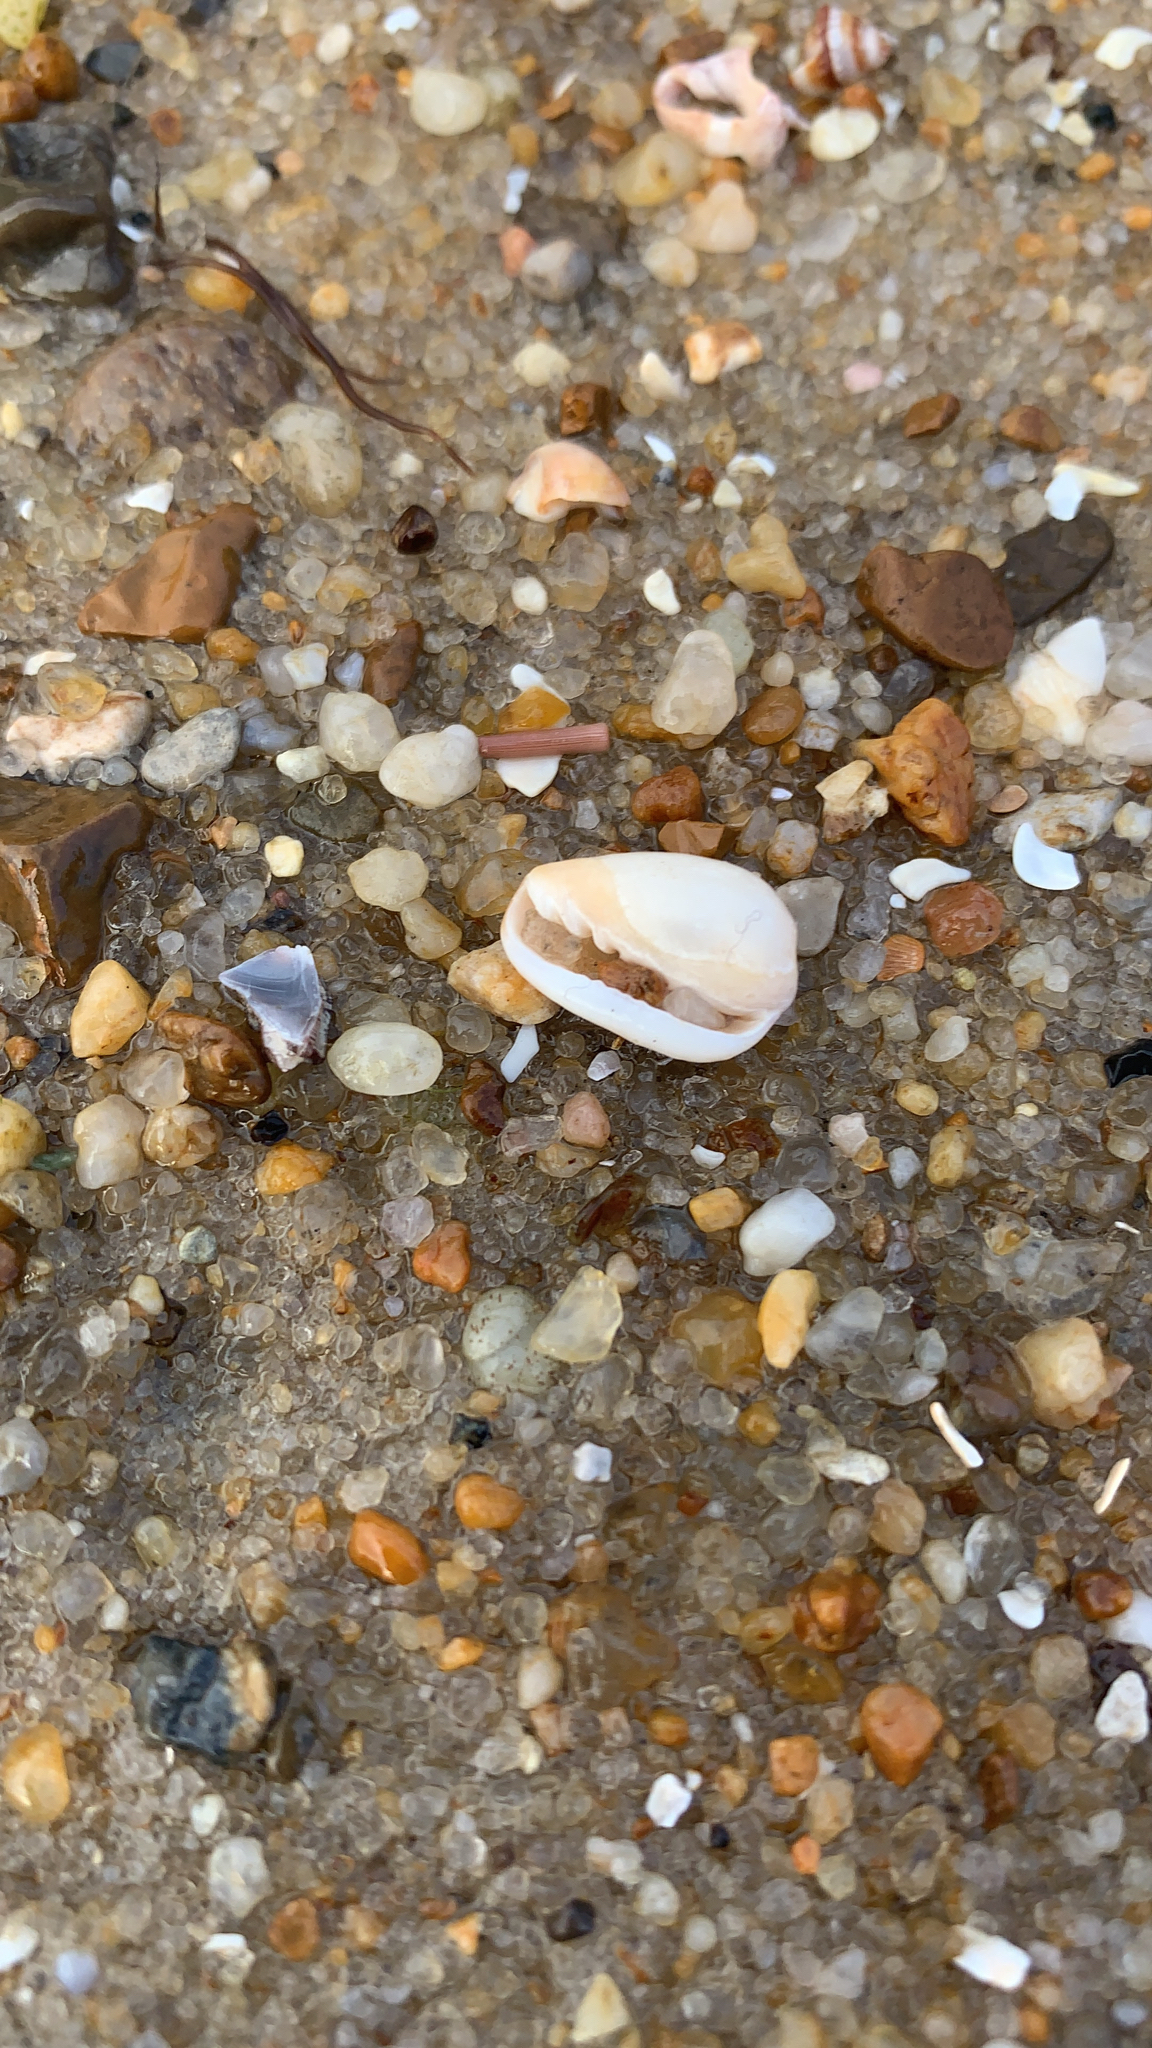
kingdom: Animalia
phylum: Mollusca
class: Gastropoda
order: Neogastropoda
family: Marginellidae
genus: Prunum
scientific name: Prunum
